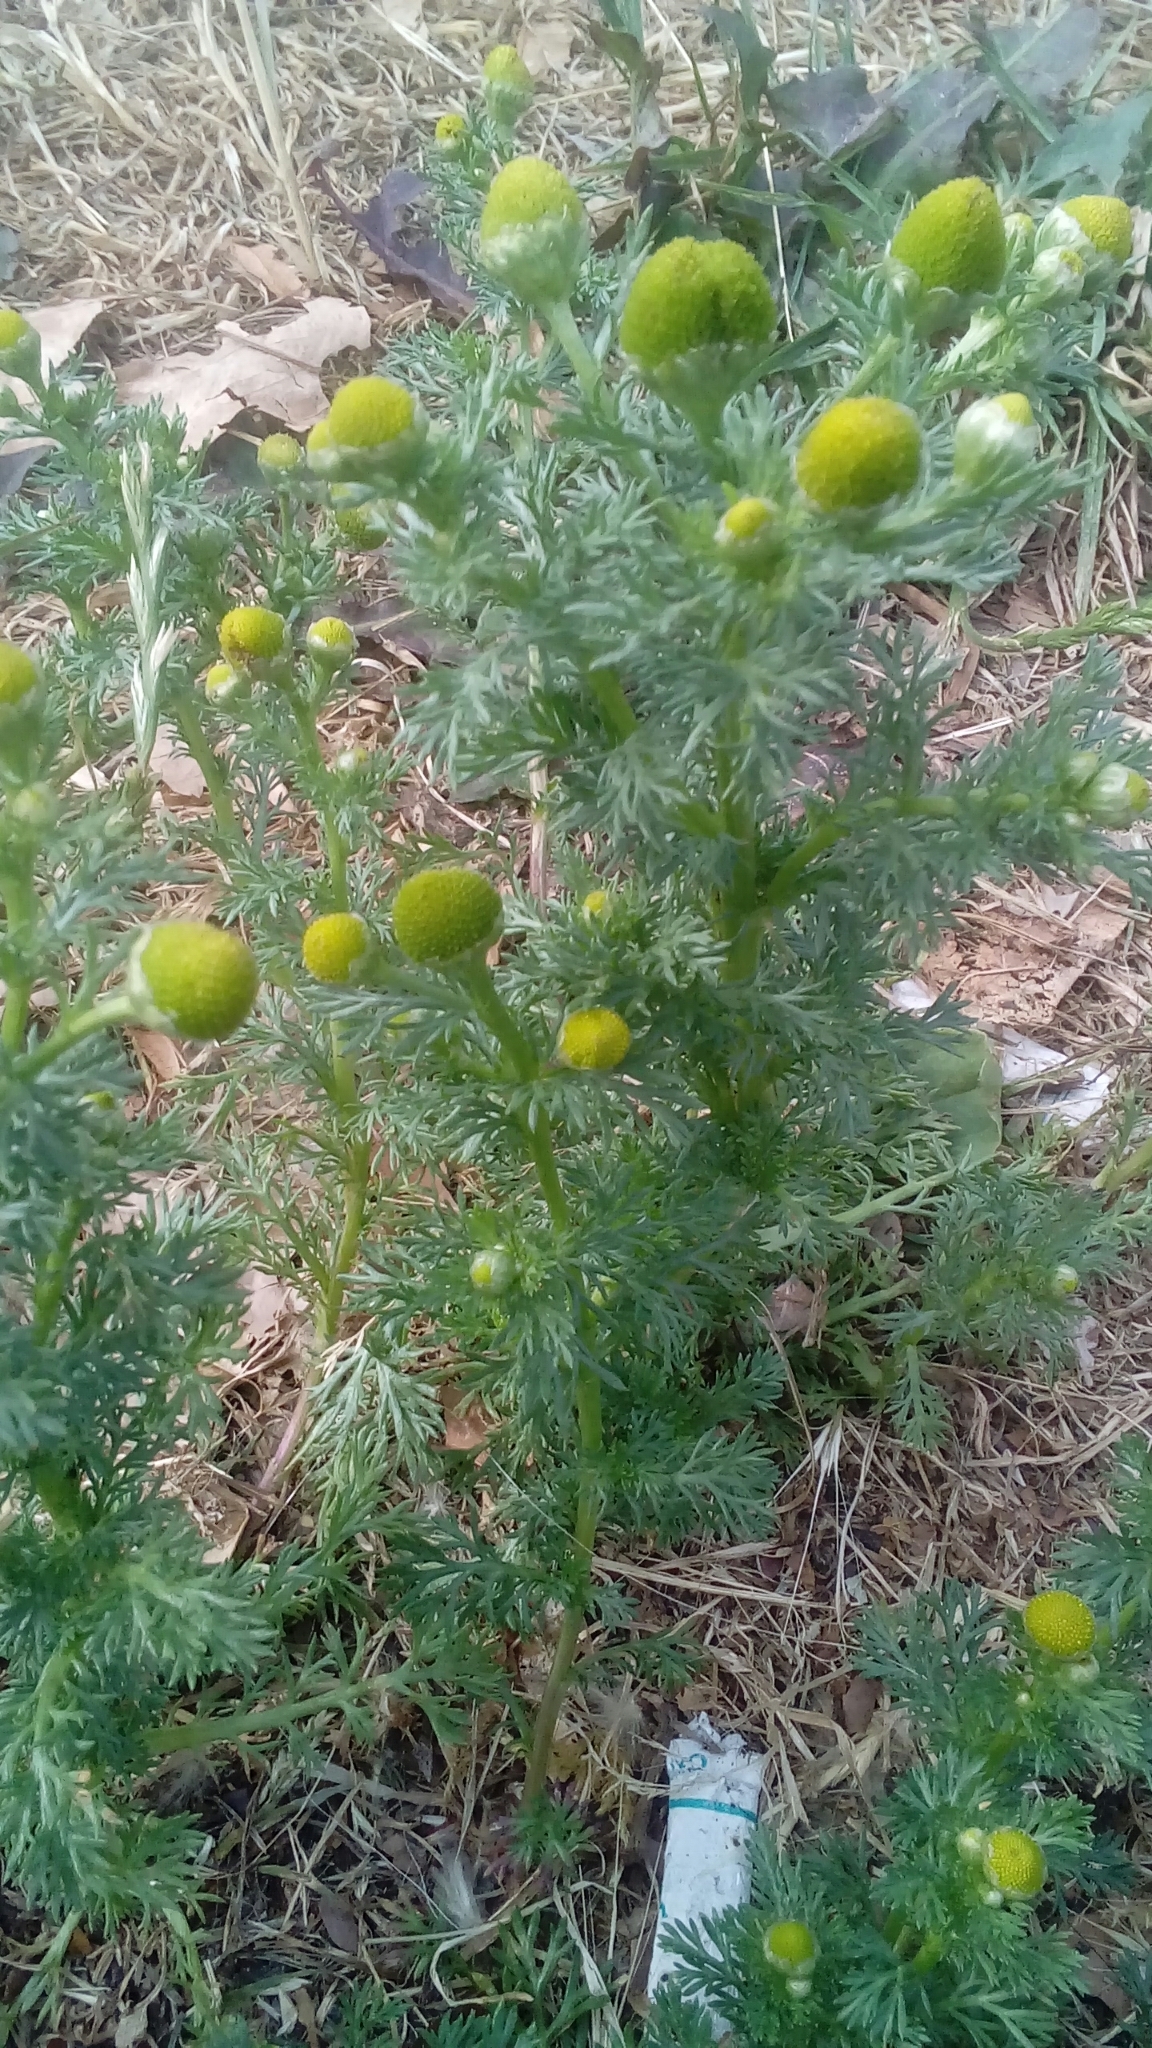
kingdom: Plantae
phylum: Tracheophyta
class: Magnoliopsida
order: Asterales
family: Asteraceae
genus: Matricaria
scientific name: Matricaria discoidea
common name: Disc mayweed
